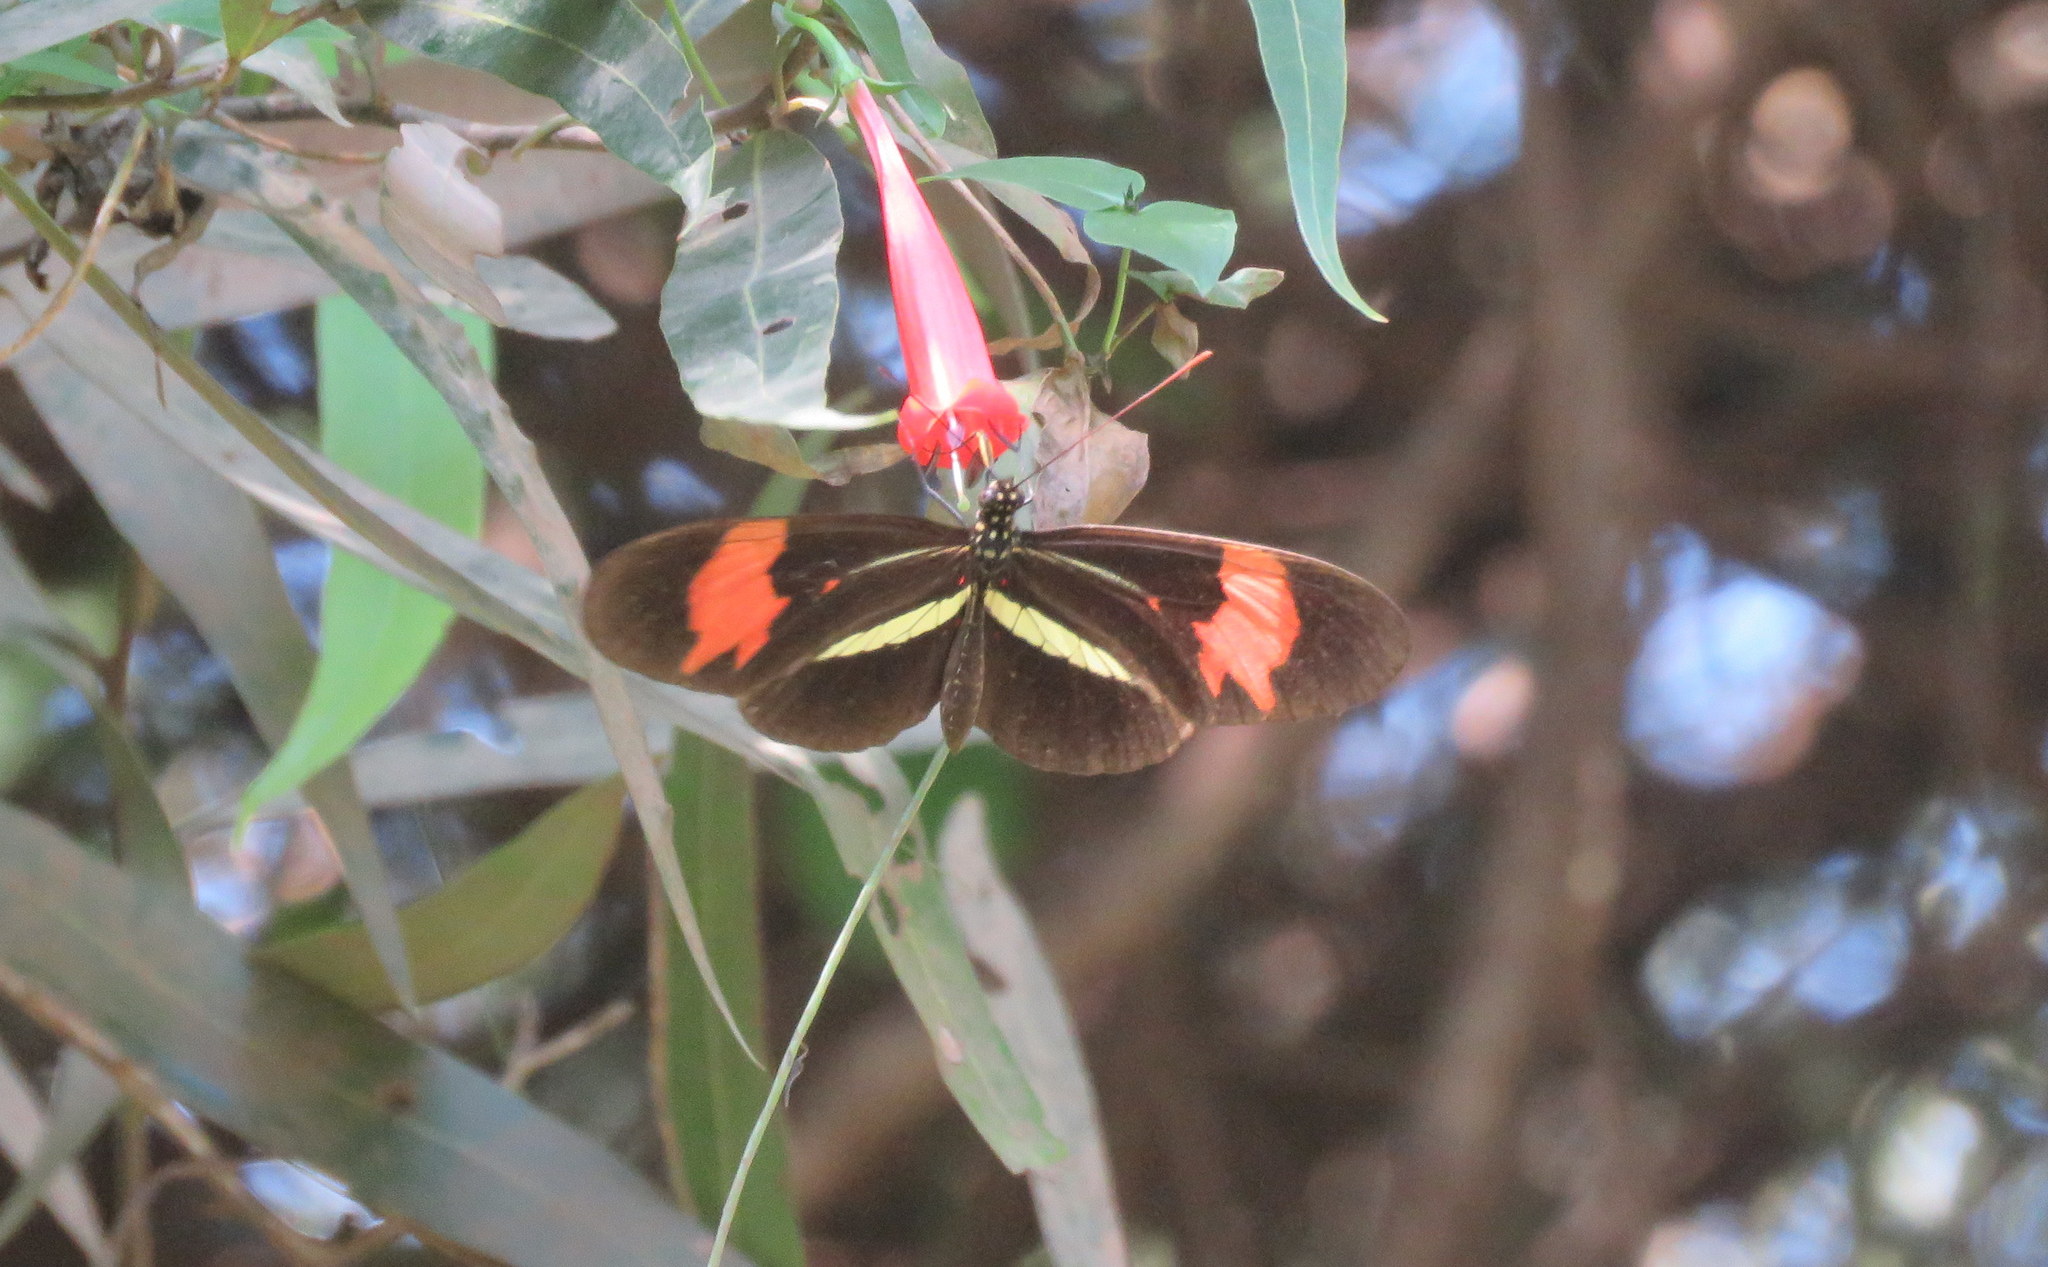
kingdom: Animalia
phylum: Arthropoda
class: Insecta
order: Lepidoptera
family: Nymphalidae
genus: Heliconius
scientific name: Heliconius erato
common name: Common patch longwing
